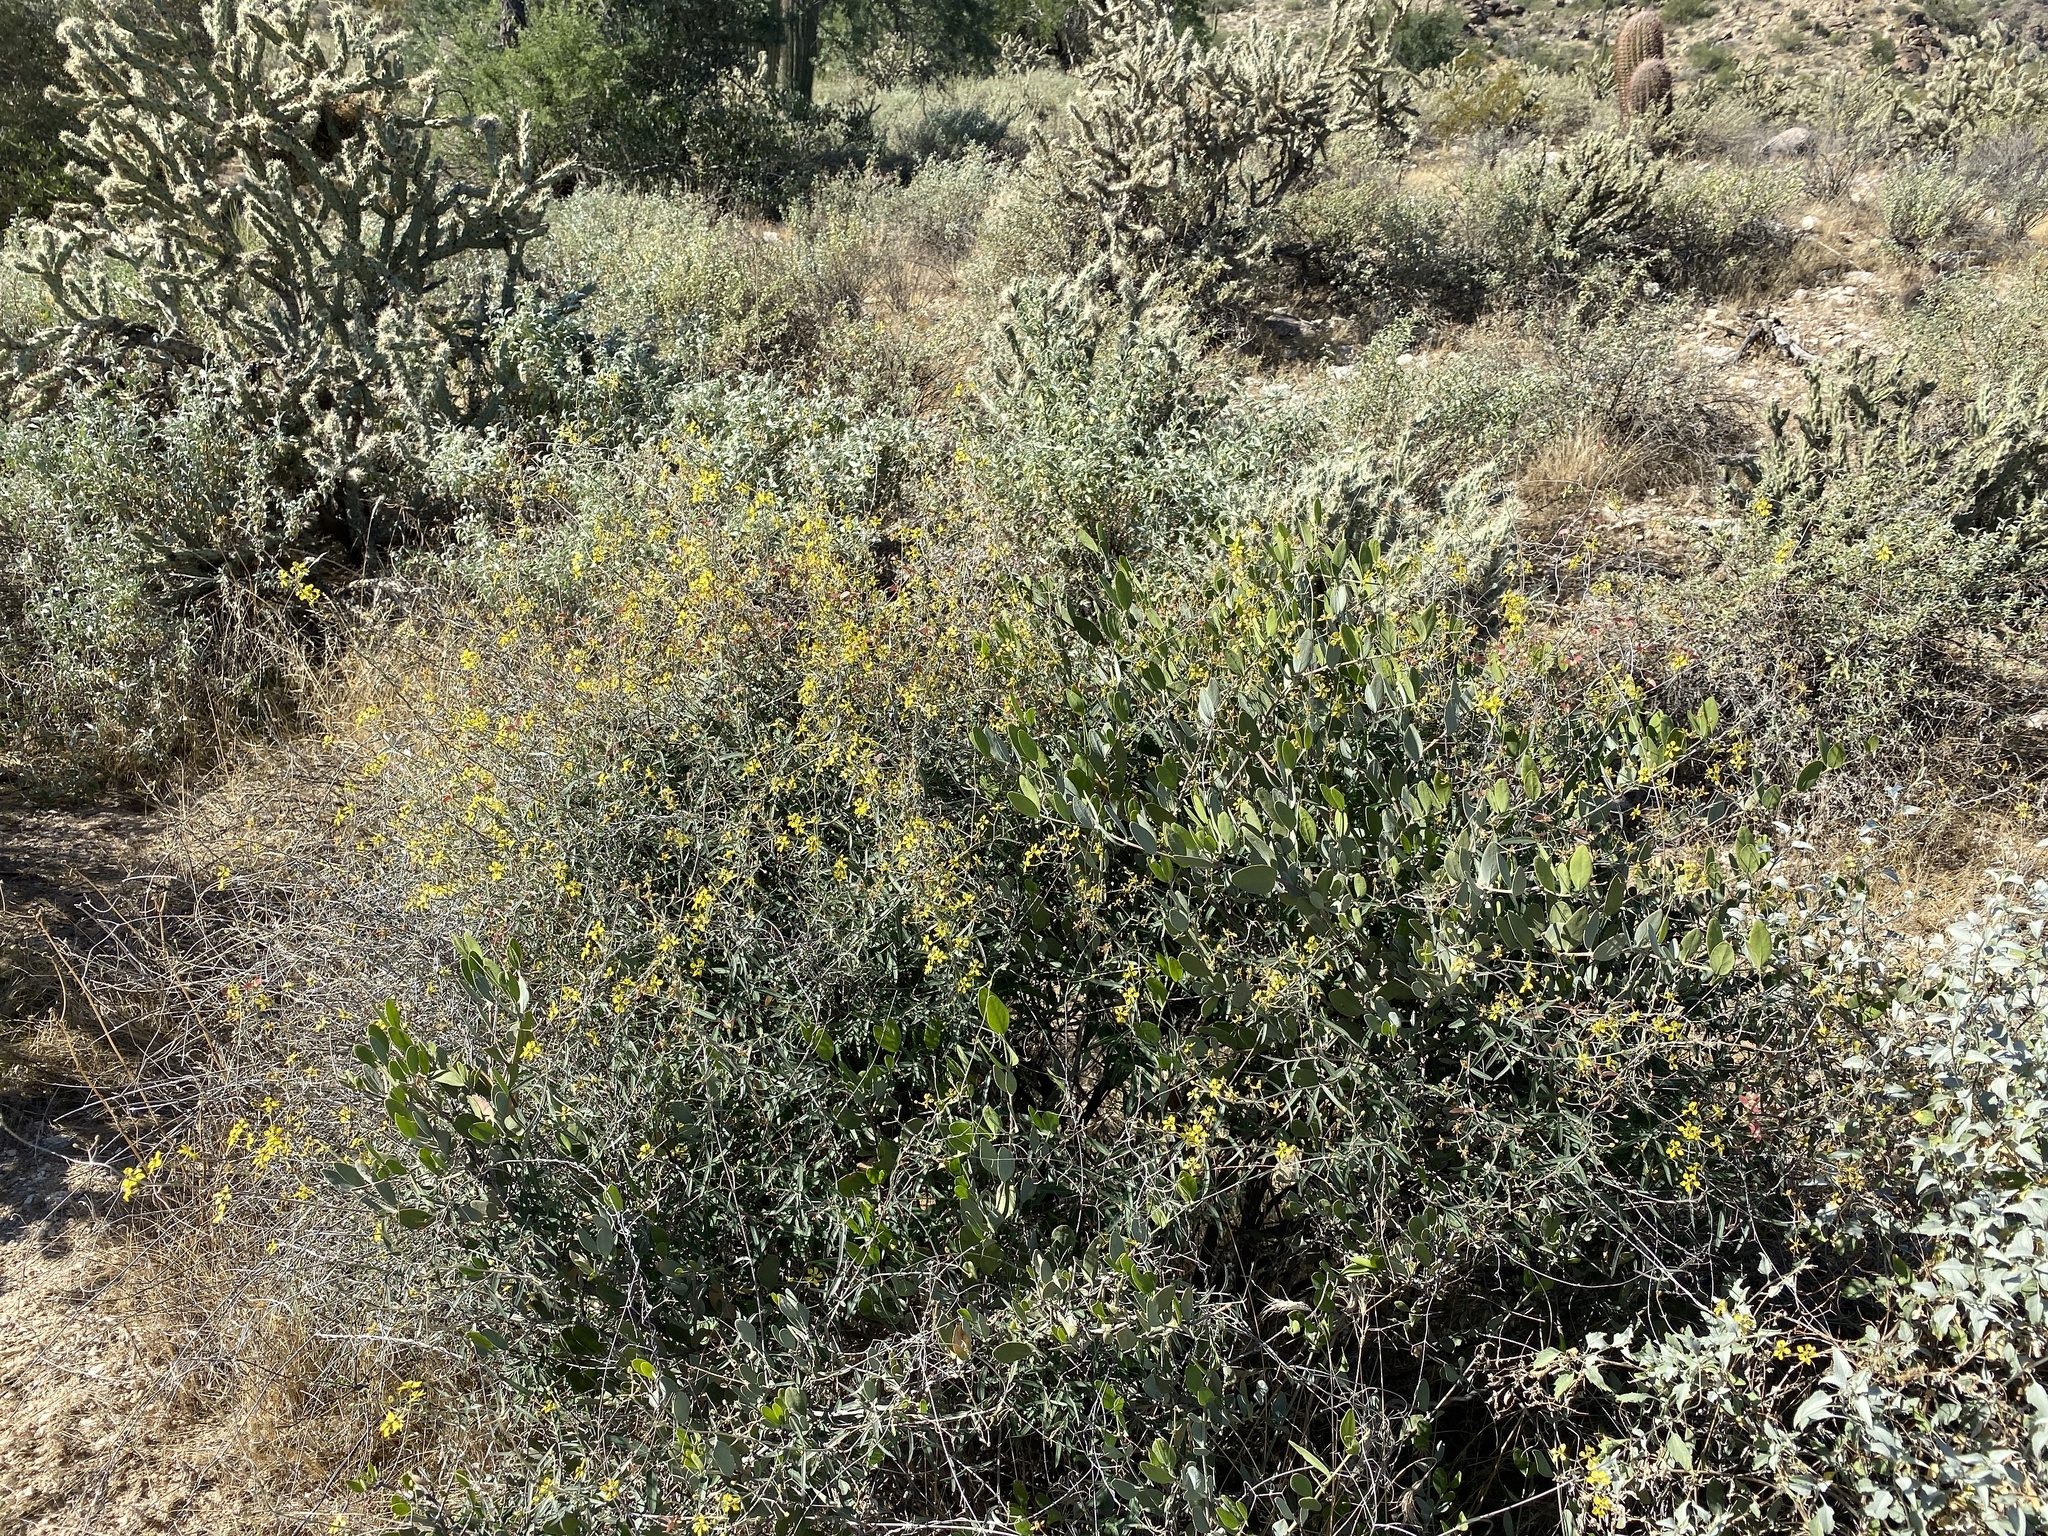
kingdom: Plantae
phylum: Tracheophyta
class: Magnoliopsida
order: Malpighiales
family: Malpighiaceae
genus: Cottsia
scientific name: Cottsia gracilis
